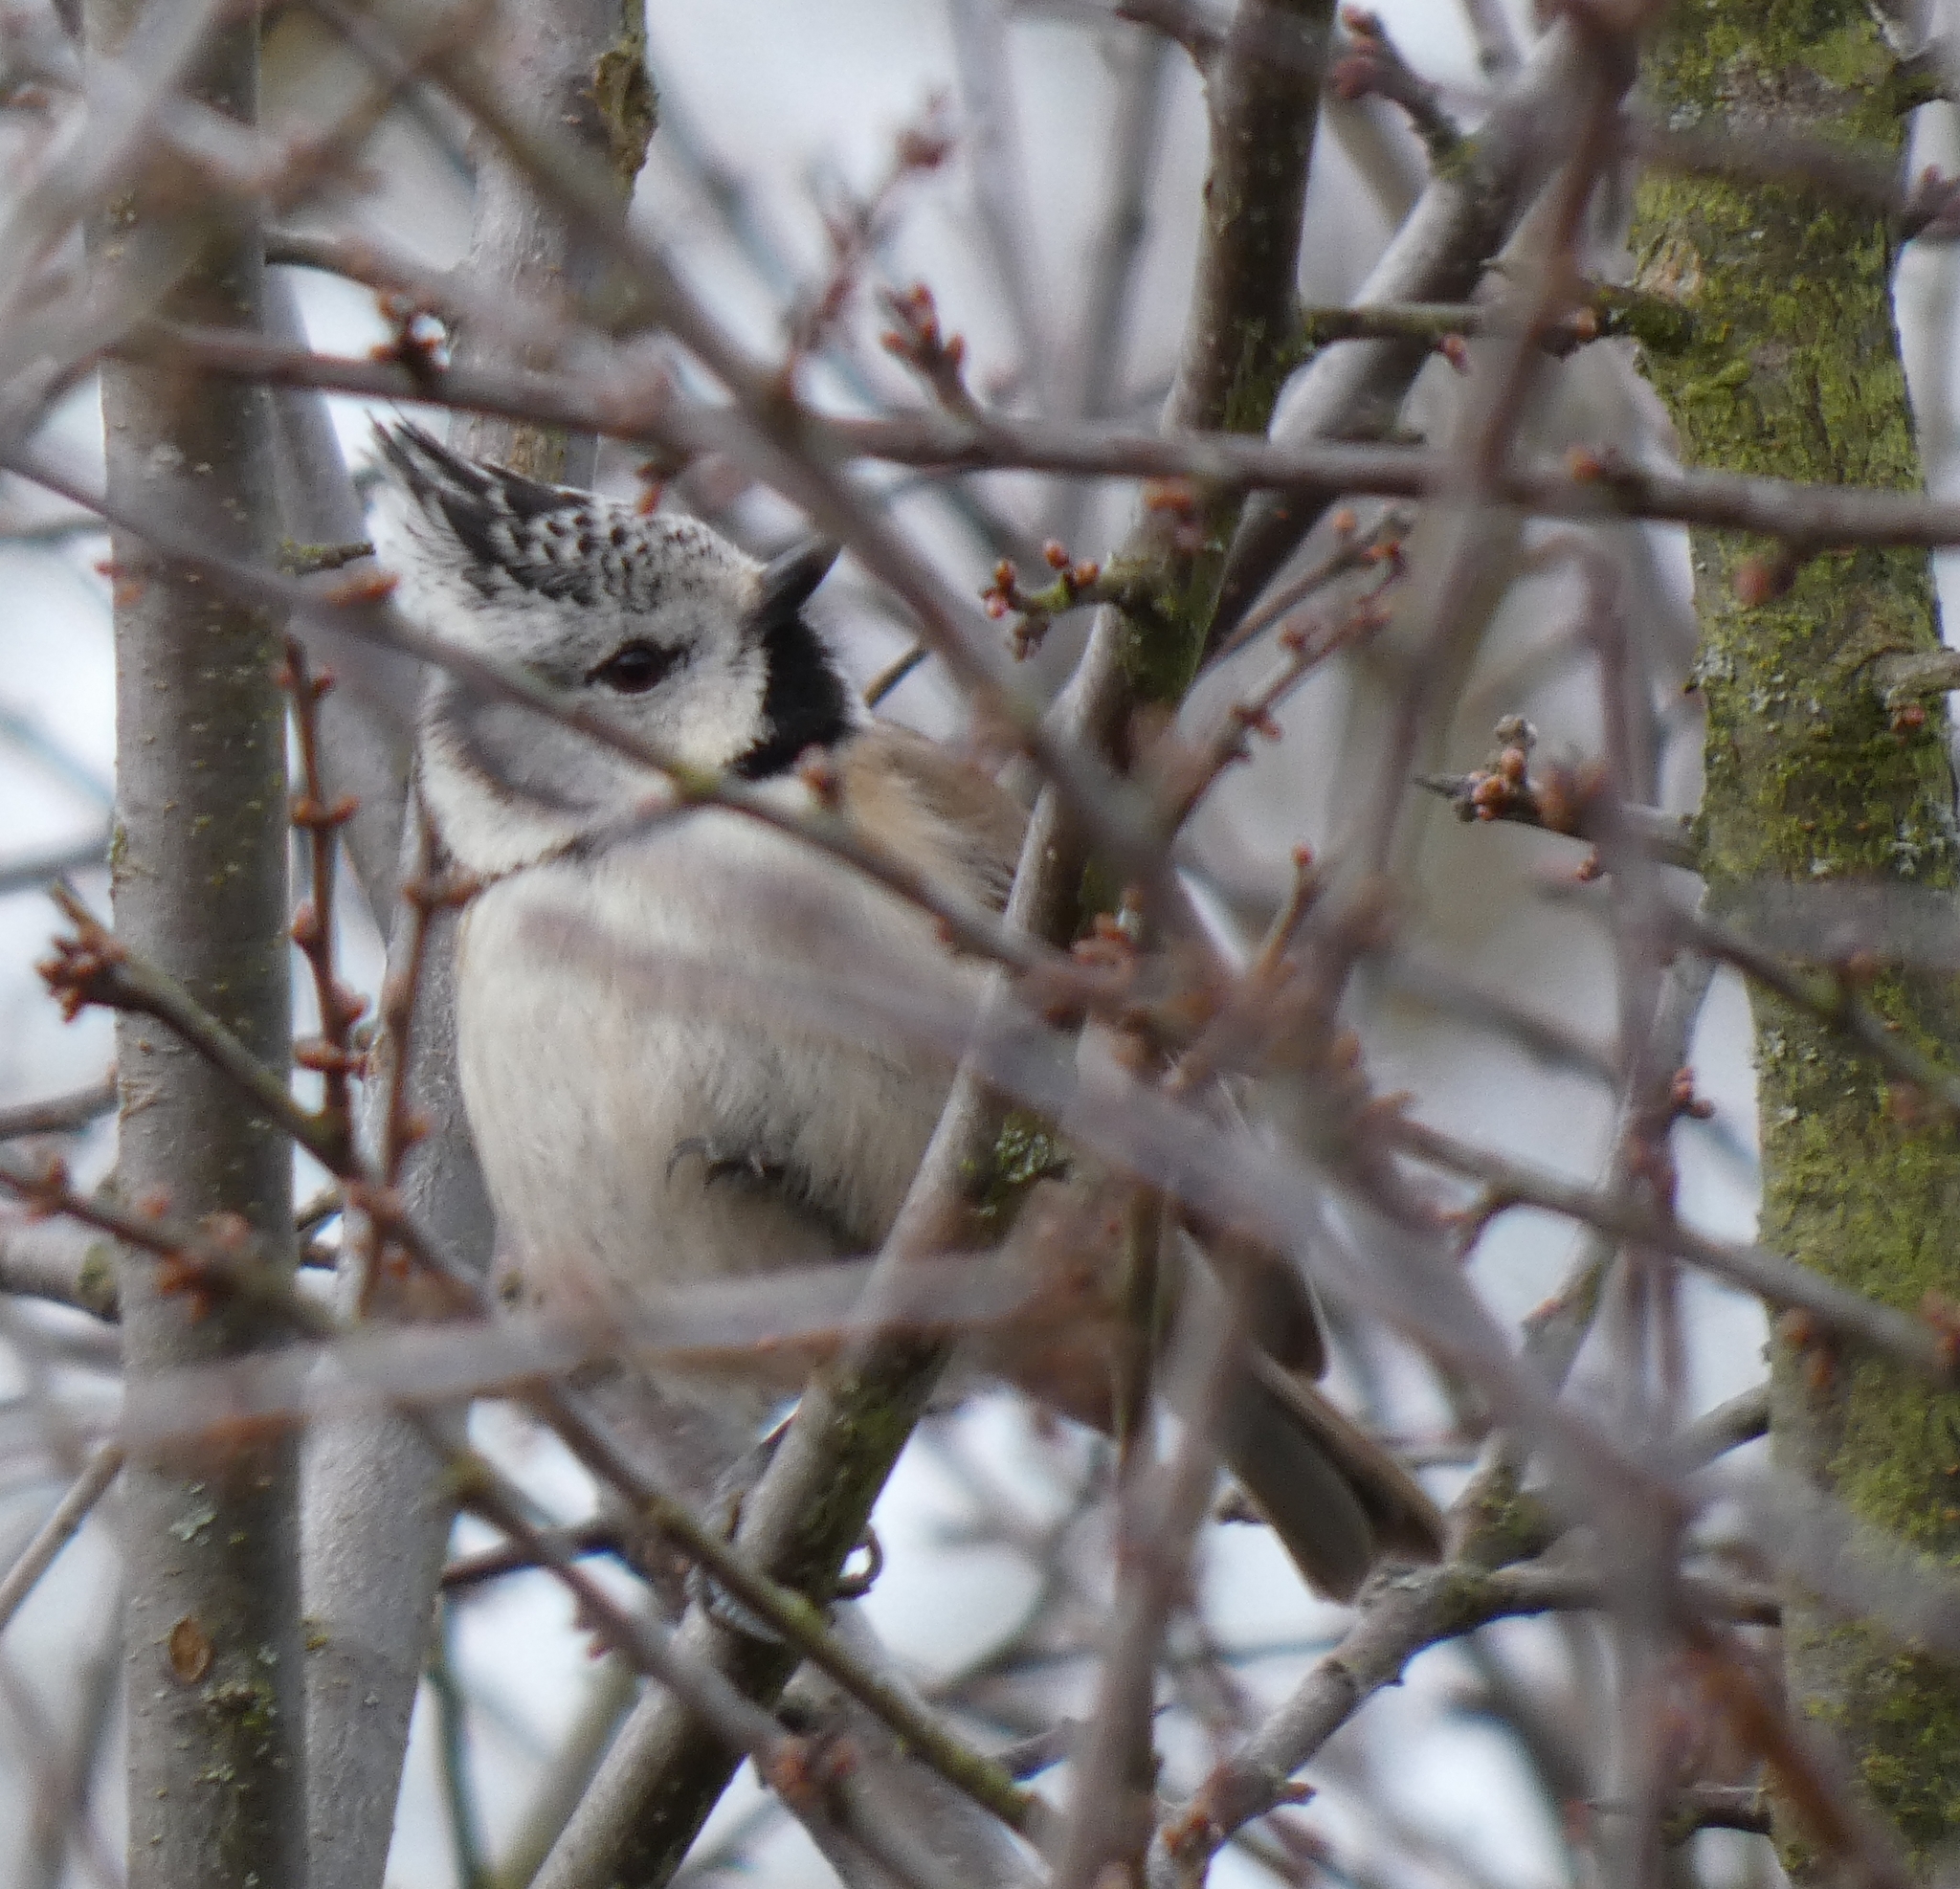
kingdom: Animalia
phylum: Chordata
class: Aves
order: Passeriformes
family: Paridae
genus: Lophophanes
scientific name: Lophophanes cristatus
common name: European crested tit
